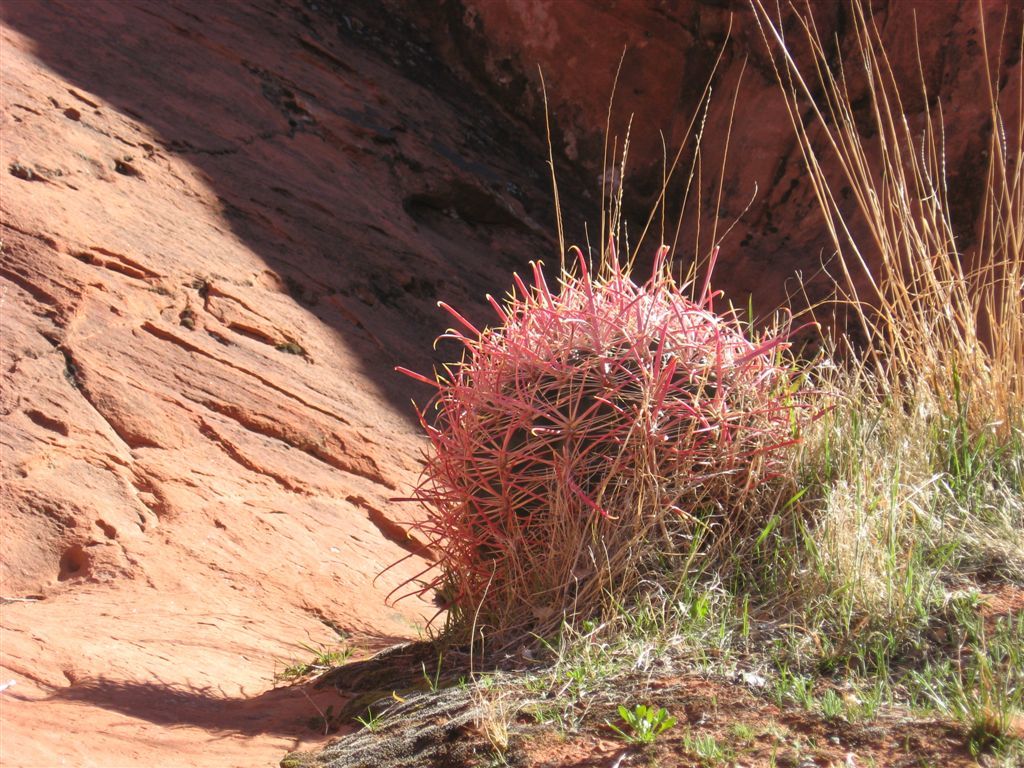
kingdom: Plantae
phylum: Tracheophyta
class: Magnoliopsida
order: Caryophyllales
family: Cactaceae
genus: Ferocactus
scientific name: Ferocactus cylindraceus
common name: California barrel cactus
